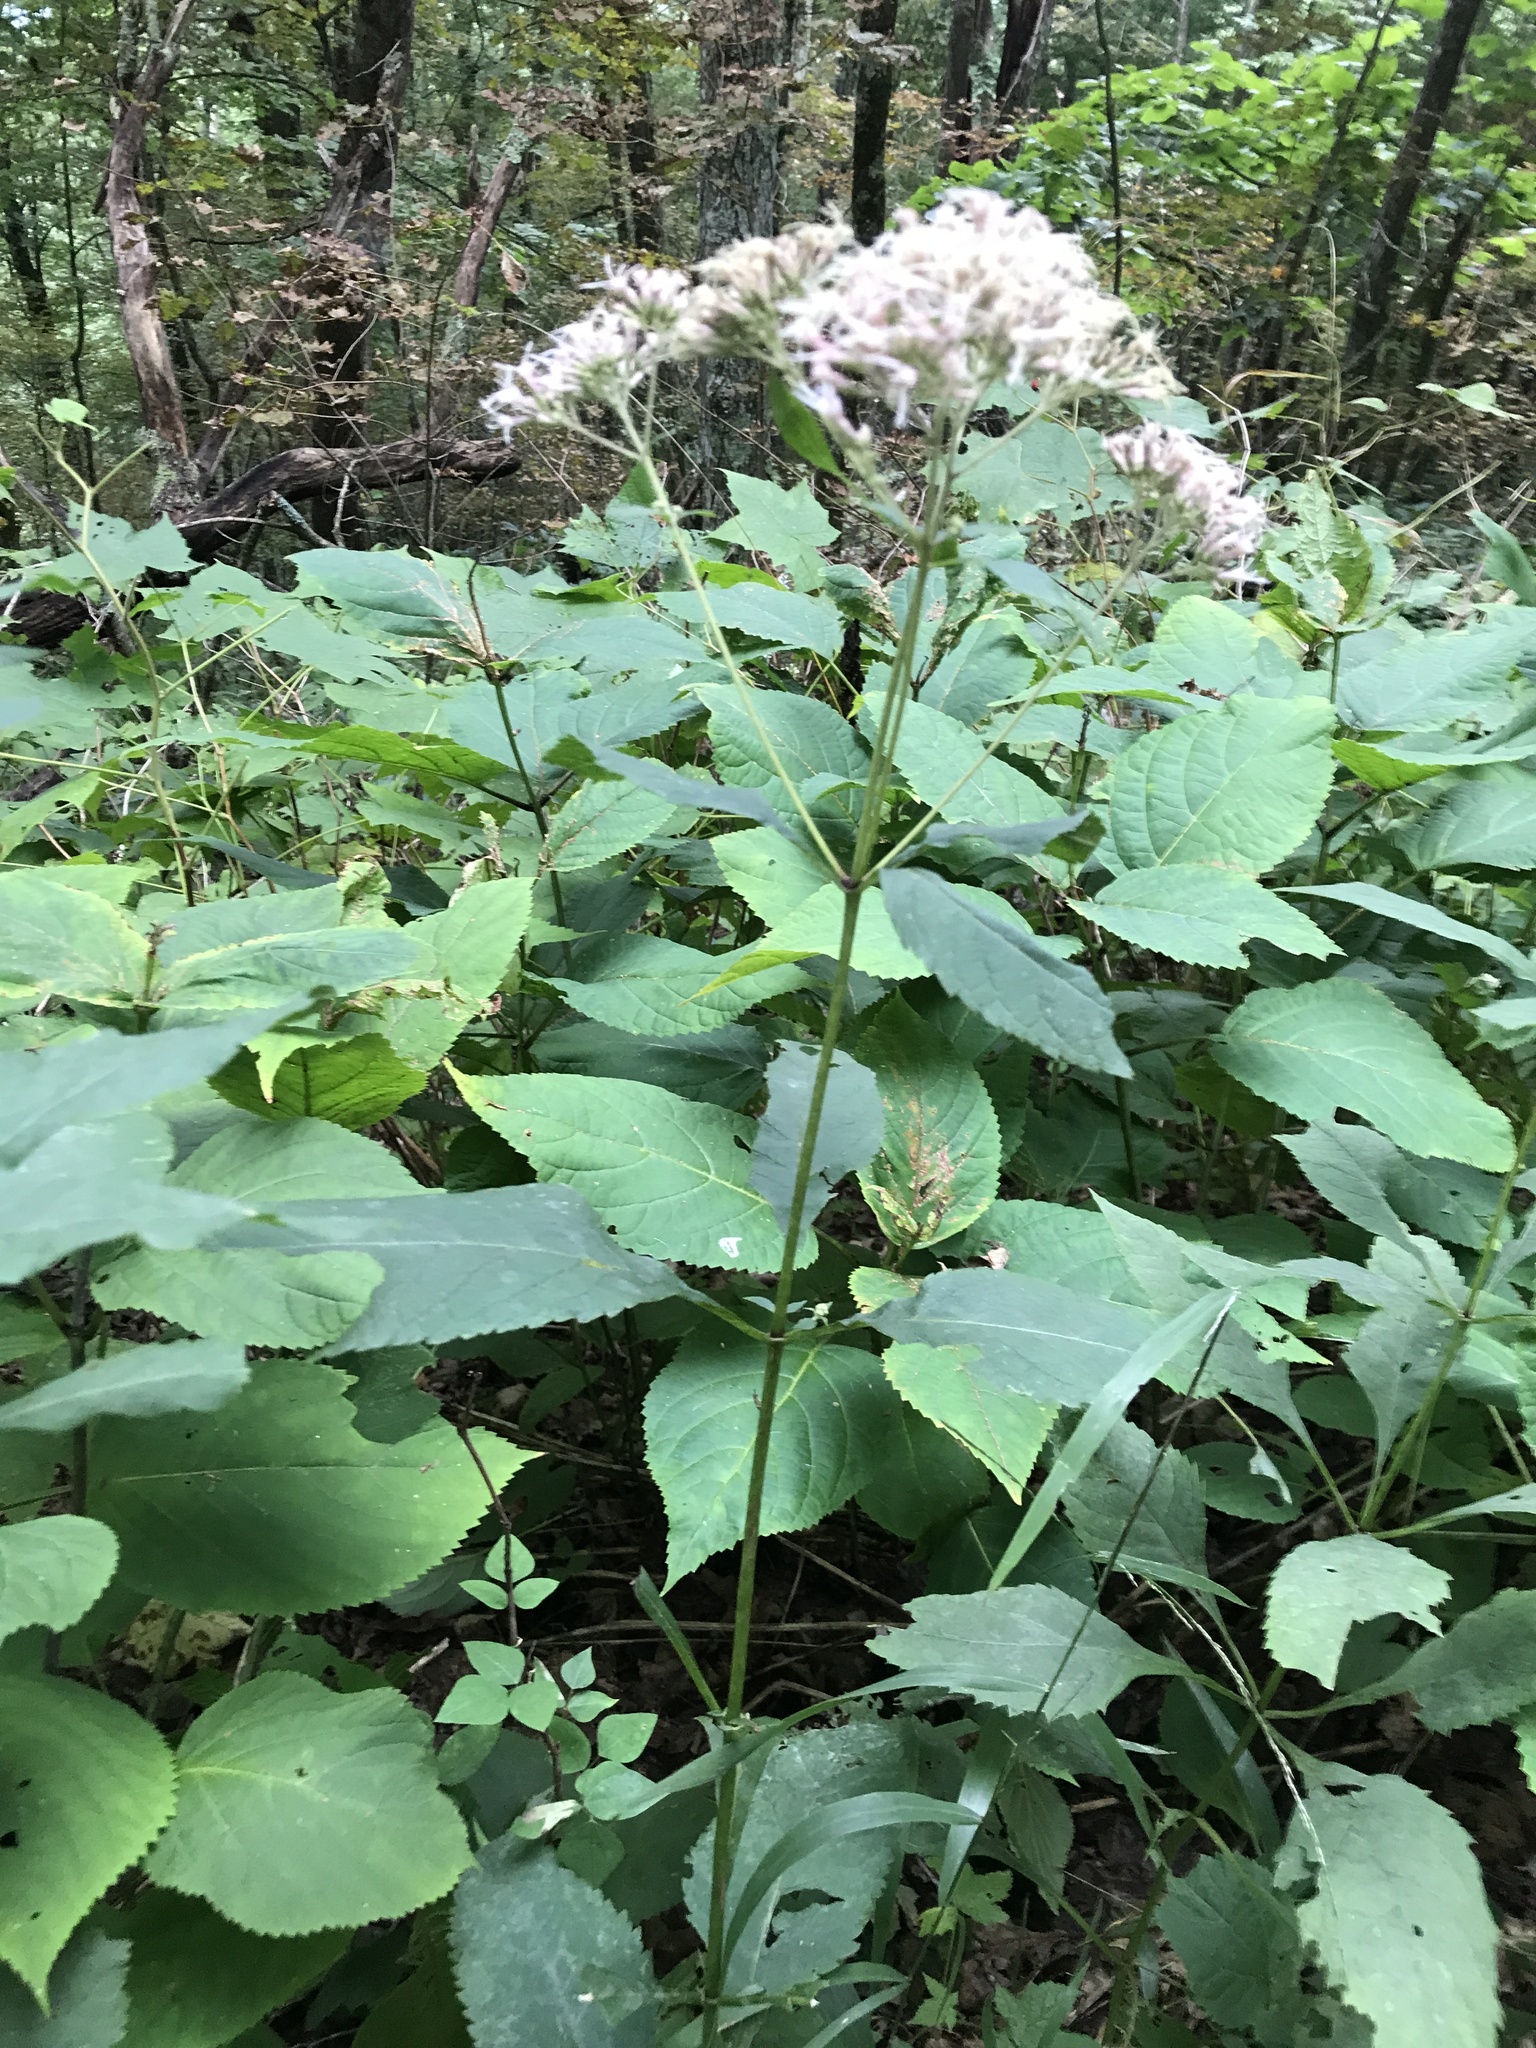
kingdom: Plantae
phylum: Tracheophyta
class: Magnoliopsida
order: Asterales
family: Asteraceae
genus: Eutrochium
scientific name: Eutrochium steelei
